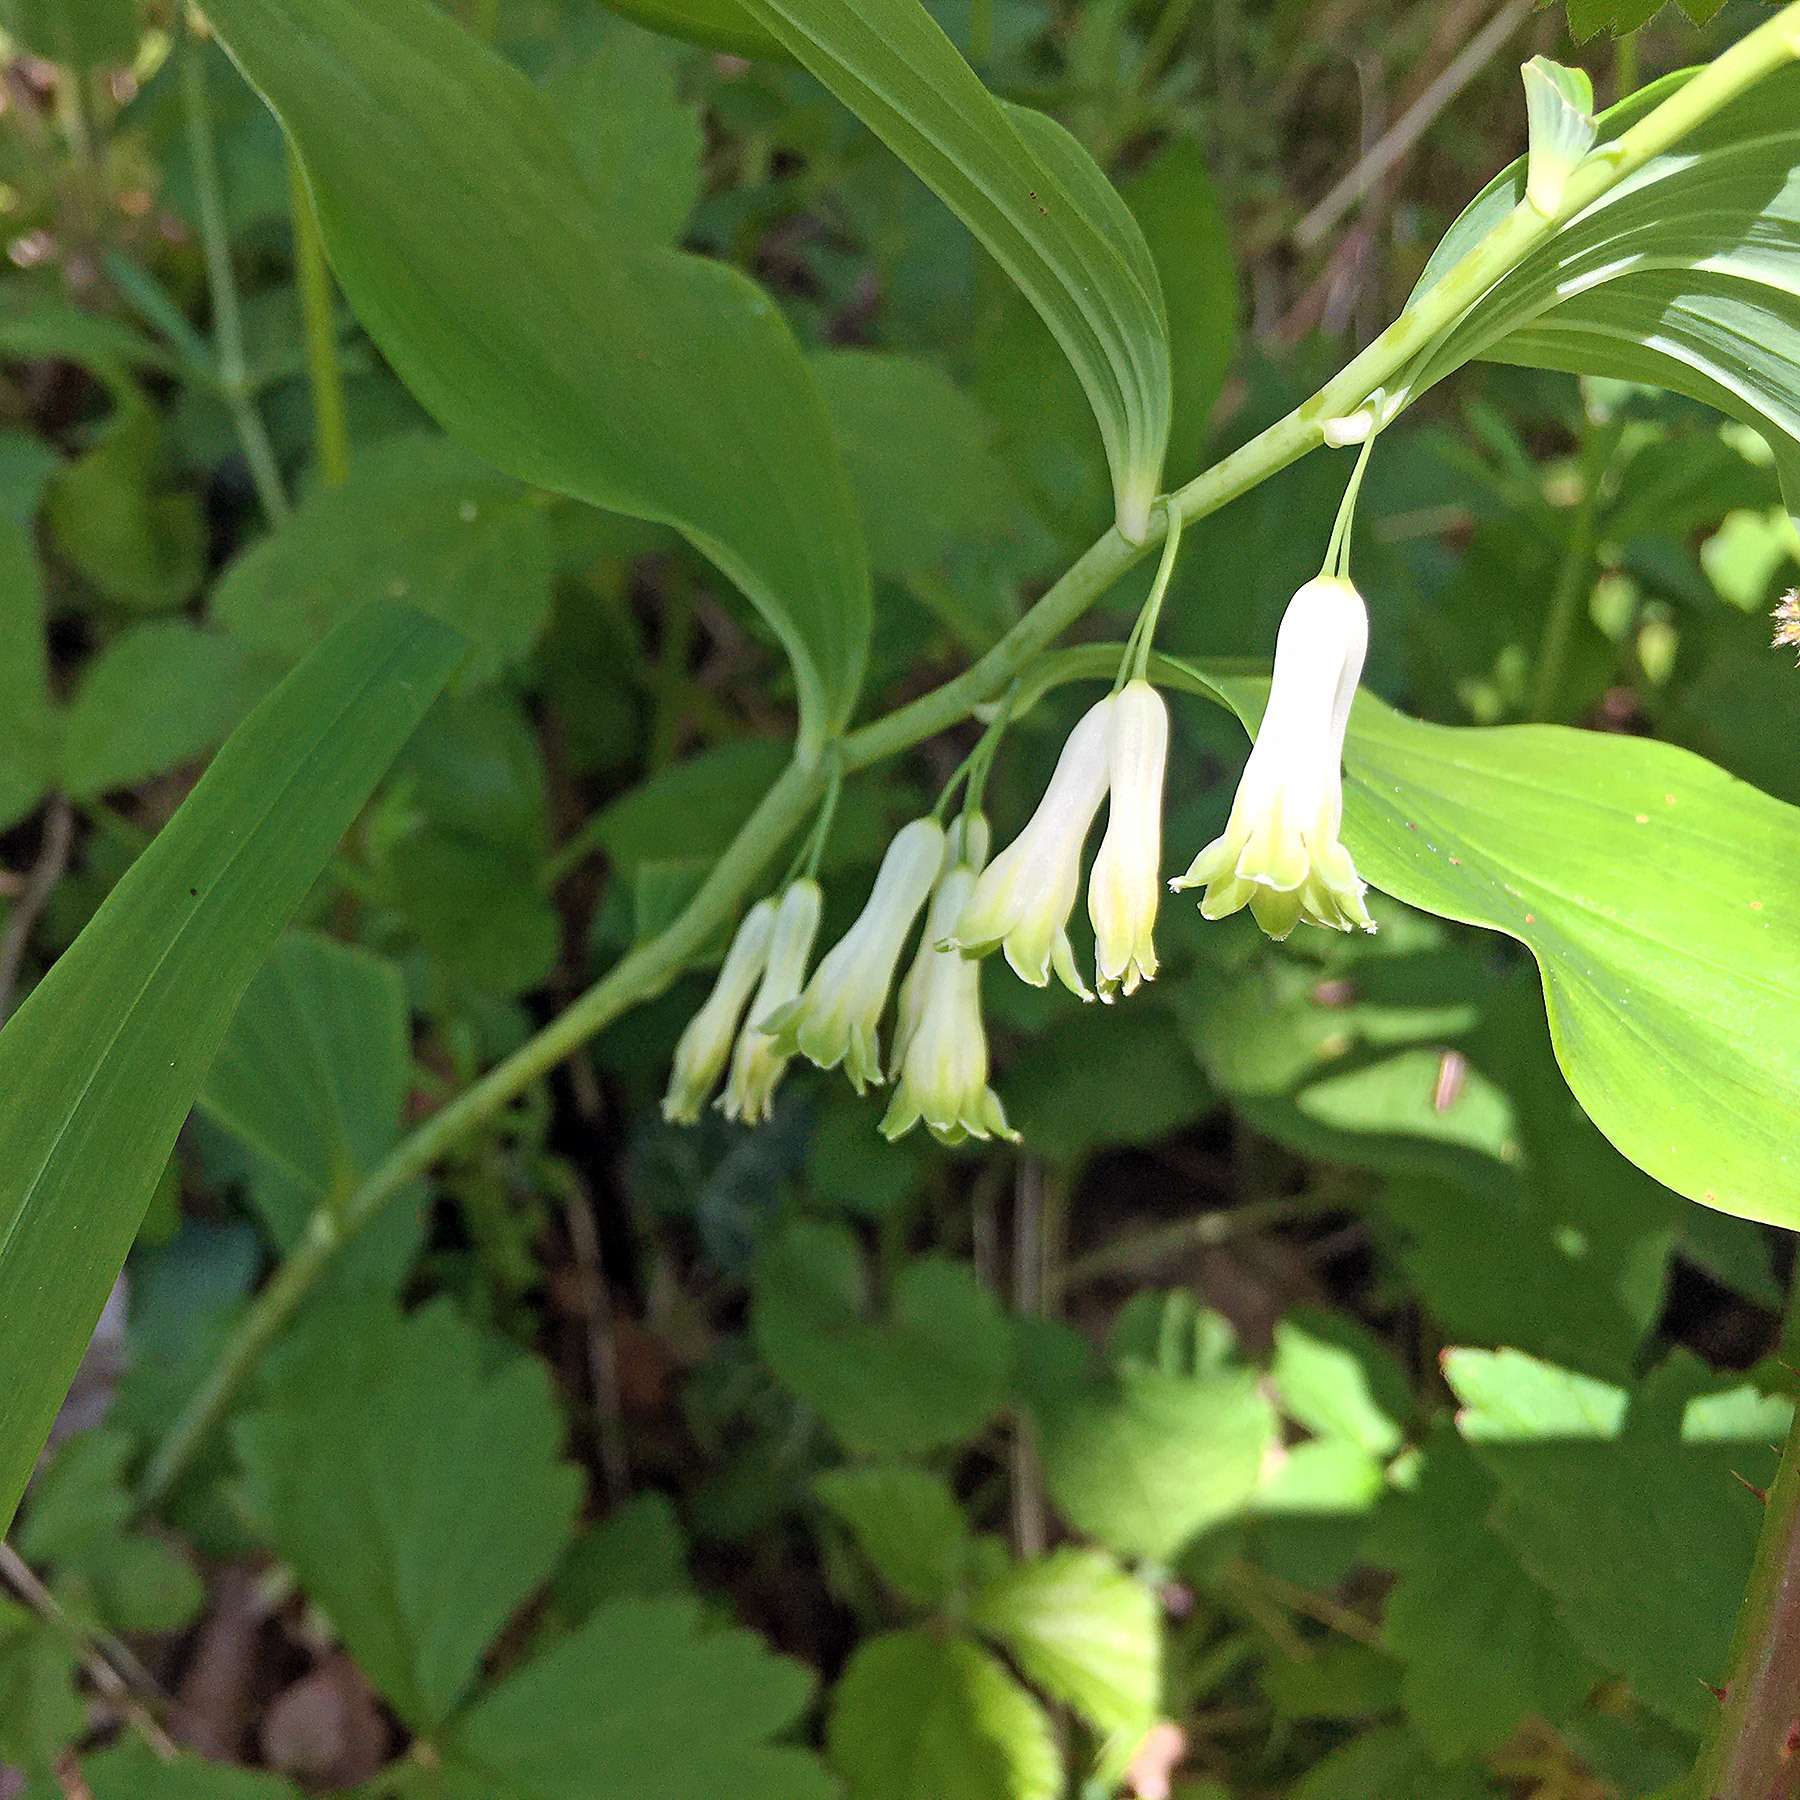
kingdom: Plantae
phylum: Tracheophyta
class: Liliopsida
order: Asparagales
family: Asparagaceae
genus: Polygonatum
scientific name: Polygonatum multiflorum
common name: Solomon's-seal
